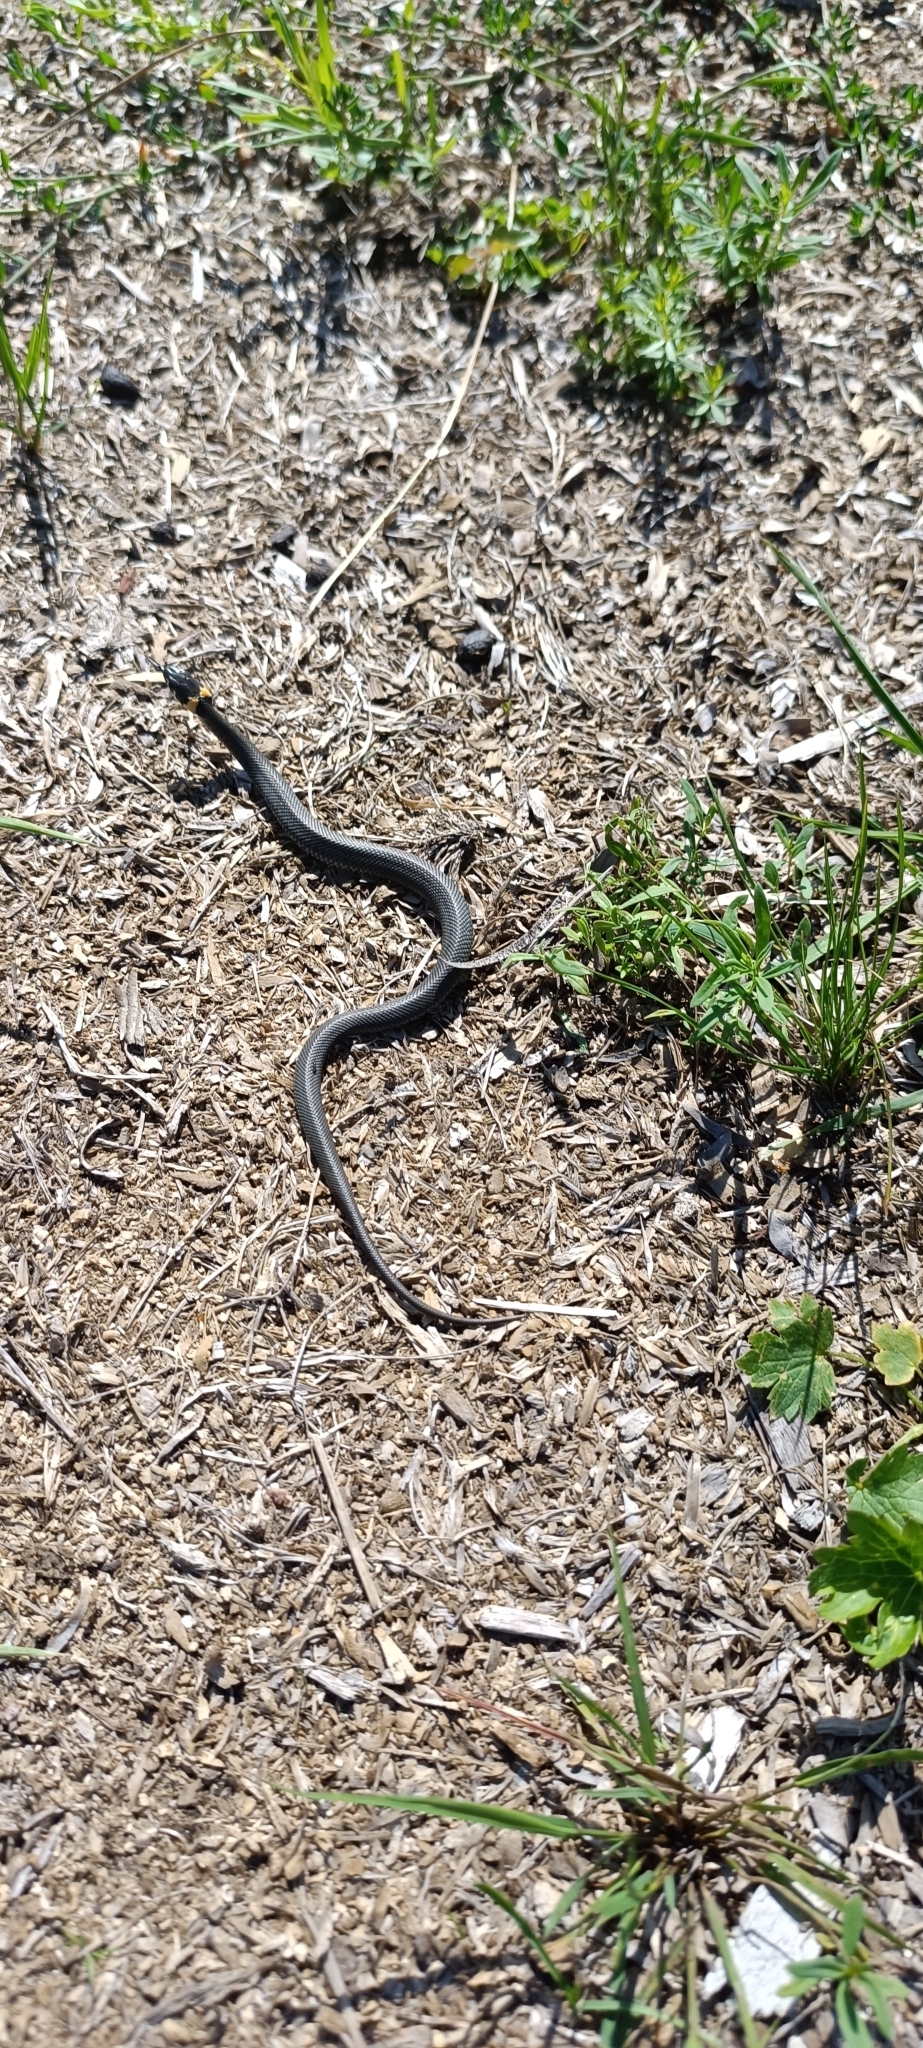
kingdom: Animalia
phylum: Chordata
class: Squamata
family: Colubridae
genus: Natrix
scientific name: Natrix natrix
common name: Grass snake
